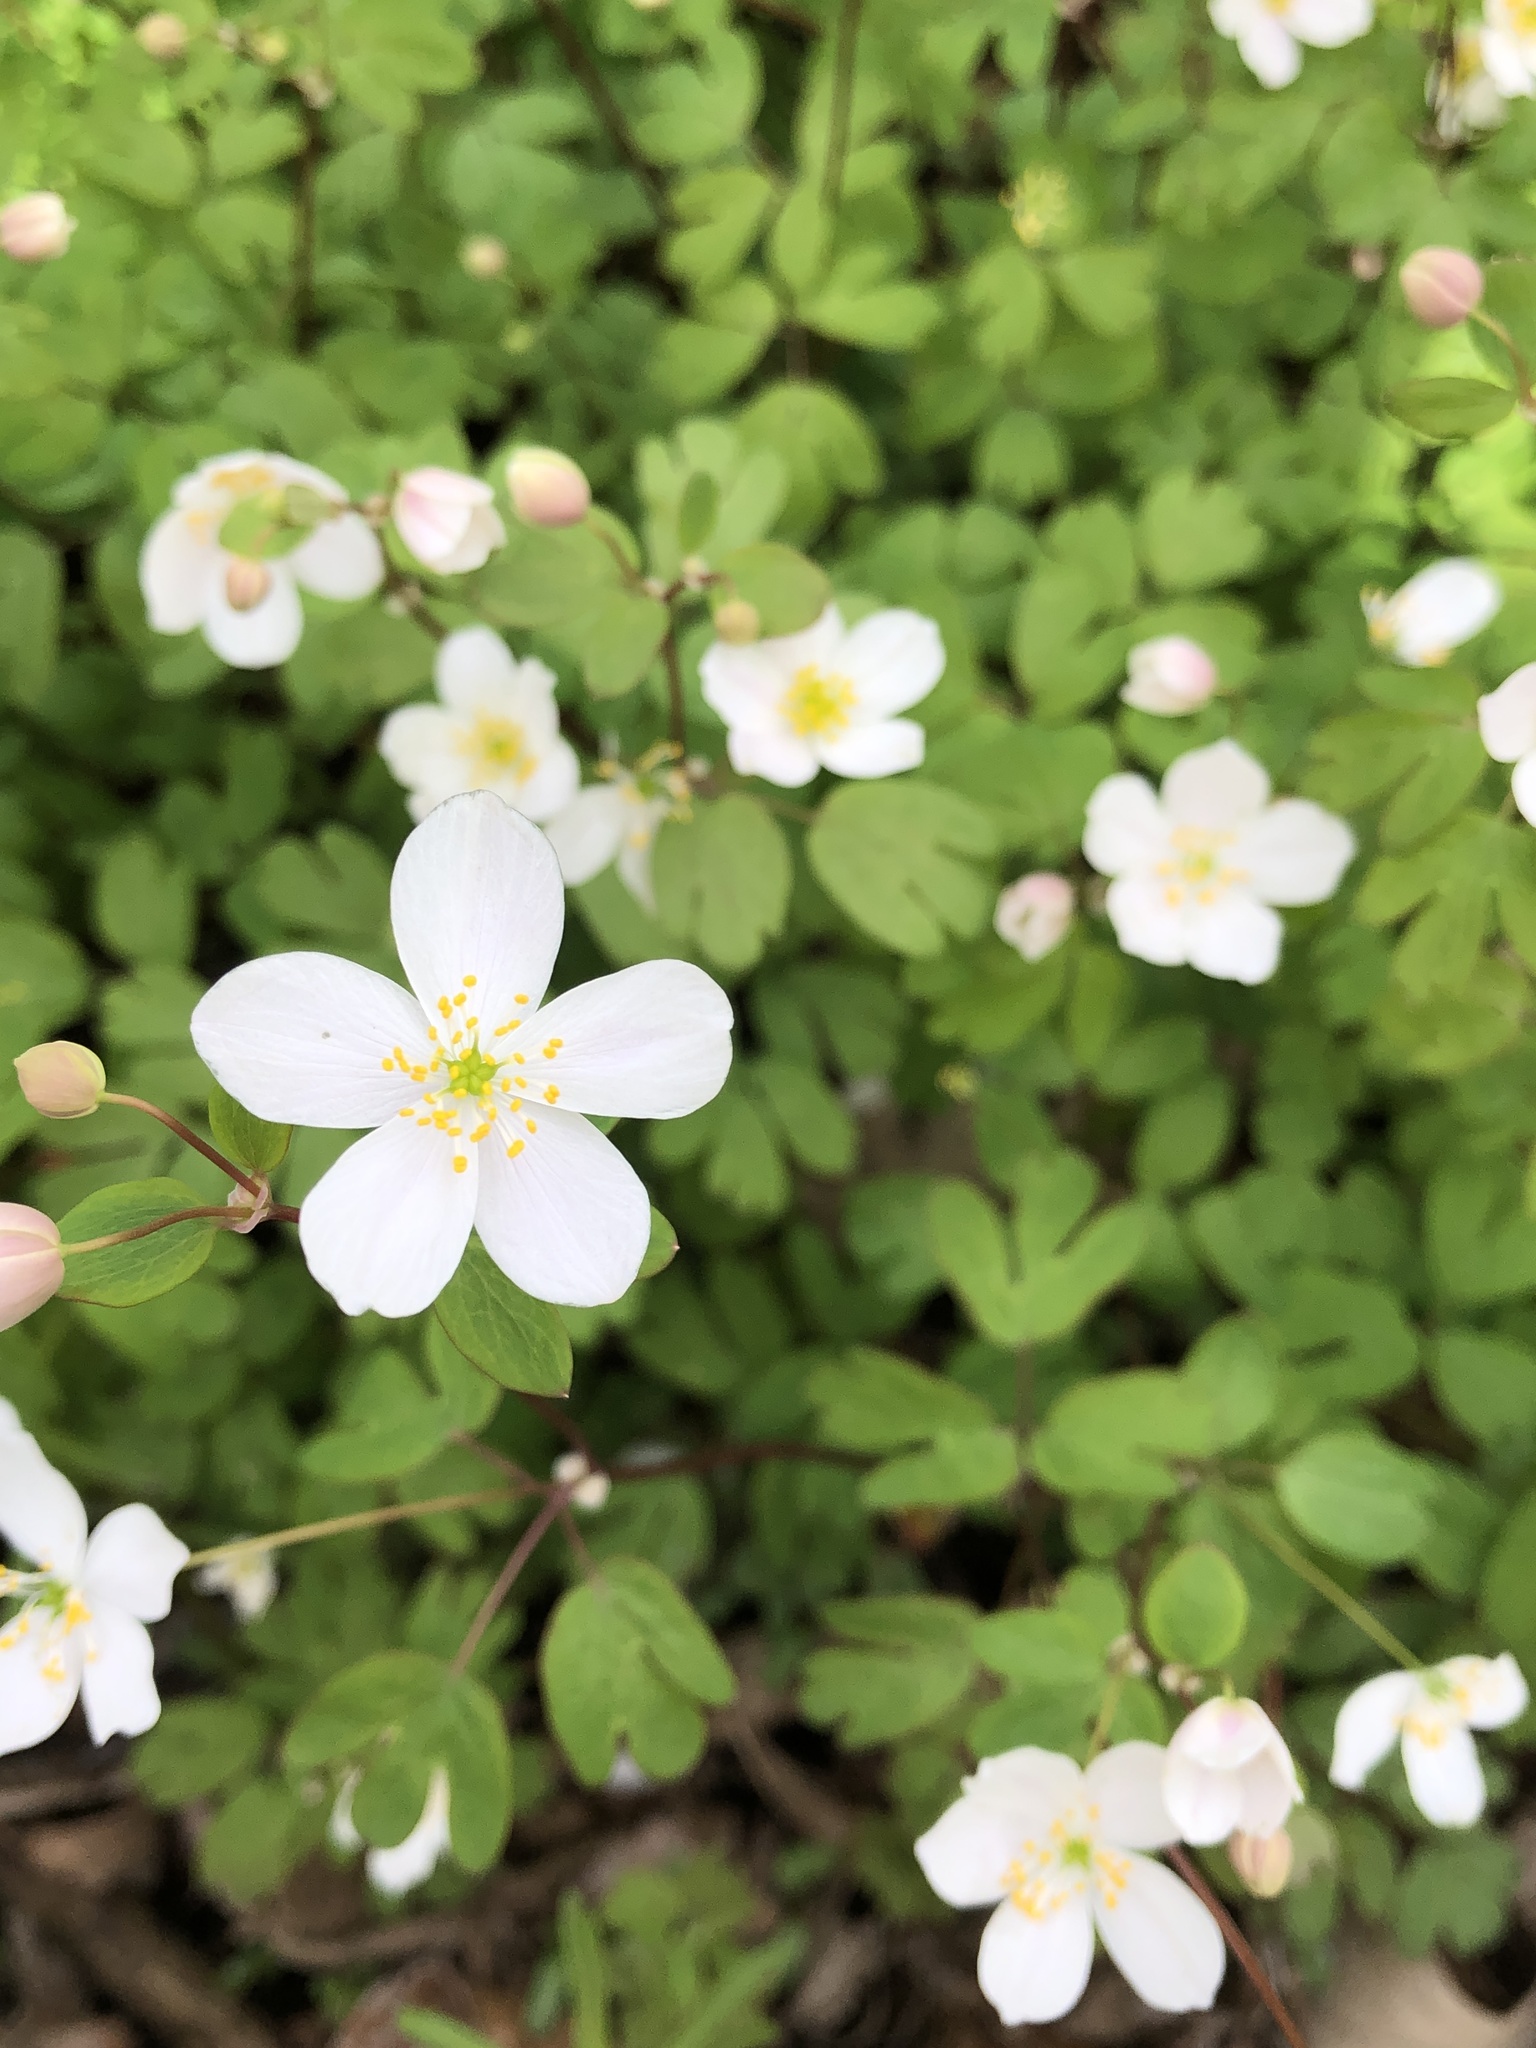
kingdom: Plantae
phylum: Tracheophyta
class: Magnoliopsida
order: Ranunculales
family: Ranunculaceae
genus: Enemion
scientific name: Enemion biternatum
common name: Eastern false rue-anemone
